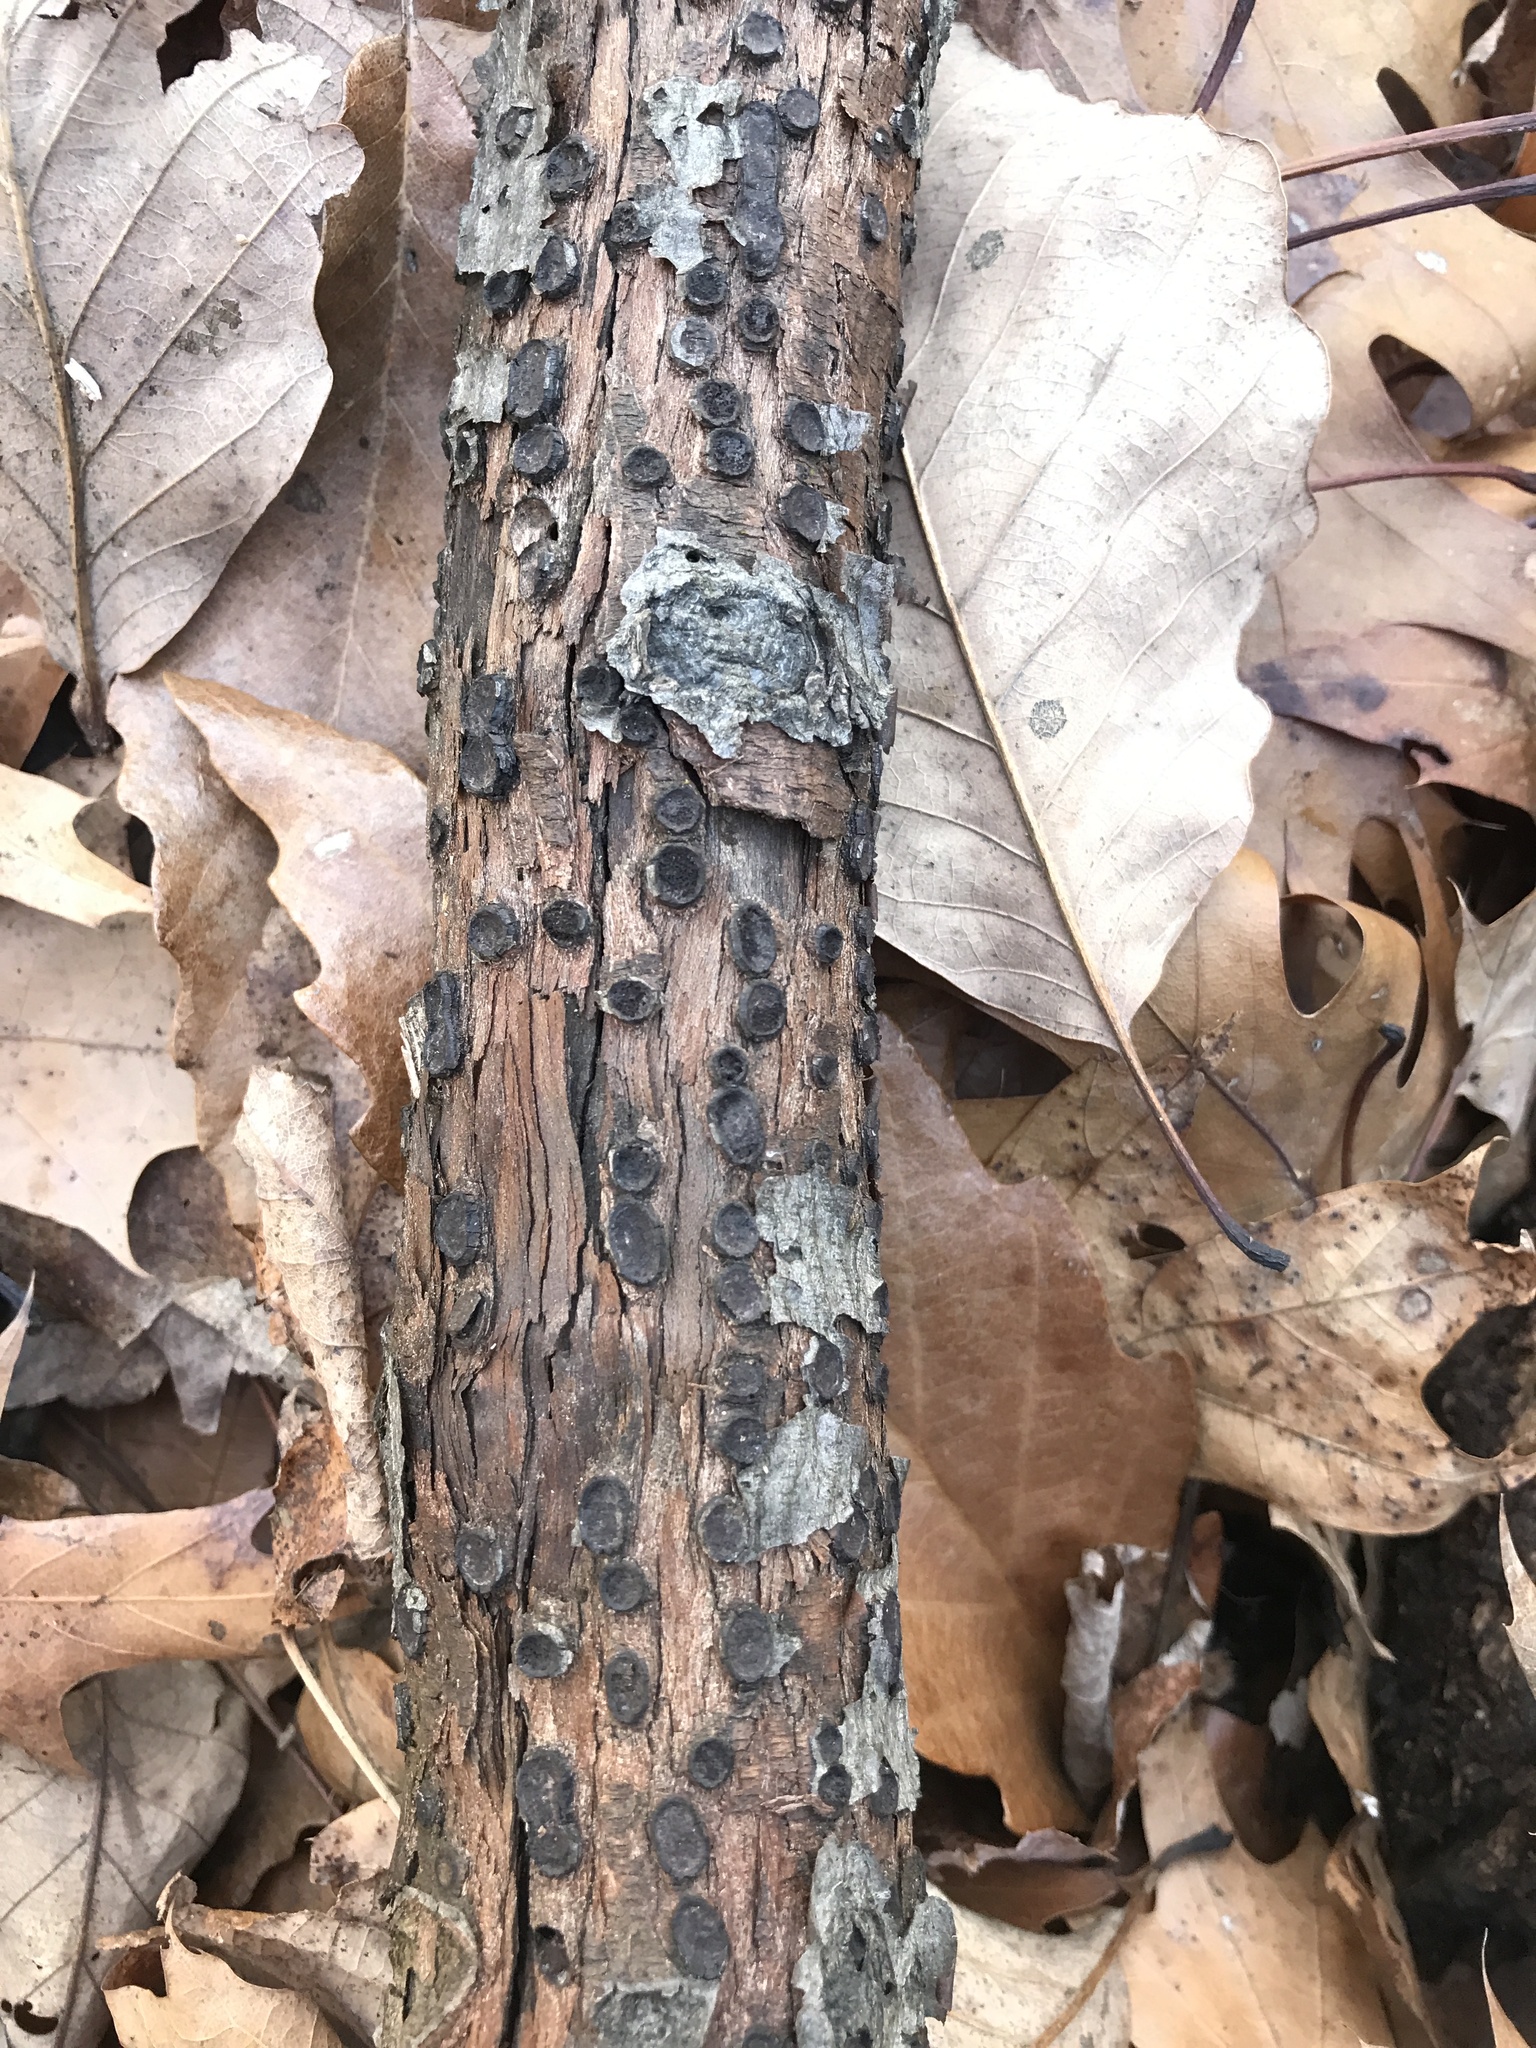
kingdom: Fungi
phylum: Ascomycota
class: Sordariomycetes
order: Xylariales
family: Graphostromataceae
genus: Biscogniauxia
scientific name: Biscogniauxia marginata
